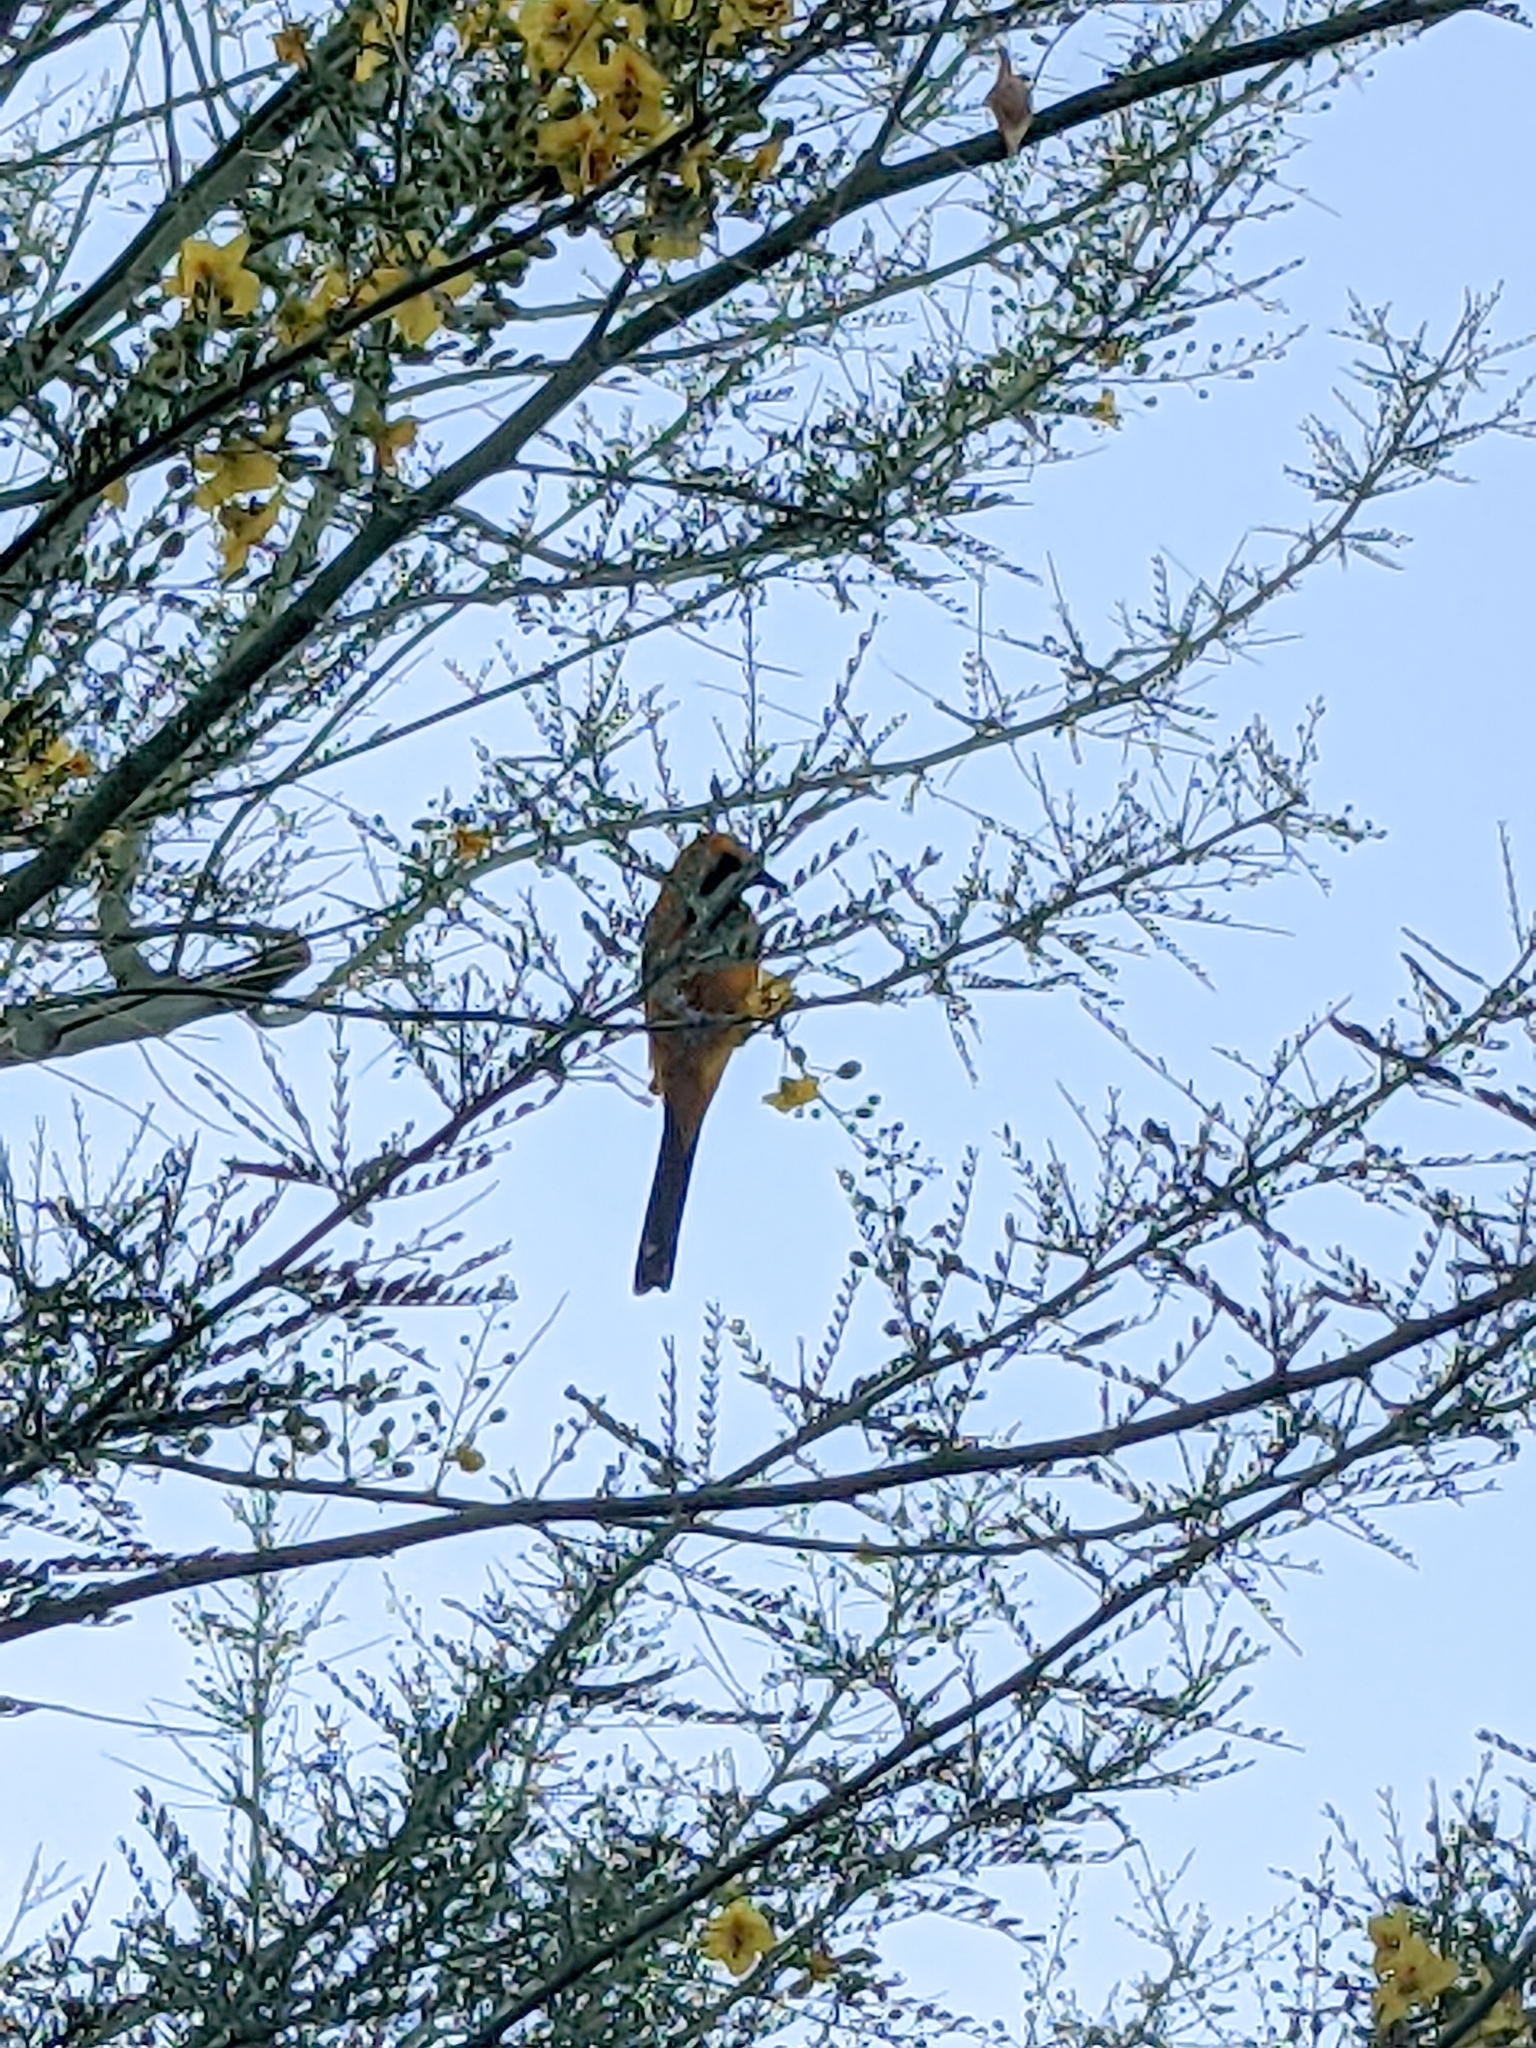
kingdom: Animalia
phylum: Chordata
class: Aves
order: Passeriformes
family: Icteridae
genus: Icterus
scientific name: Icterus cucullatus
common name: Hooded oriole
